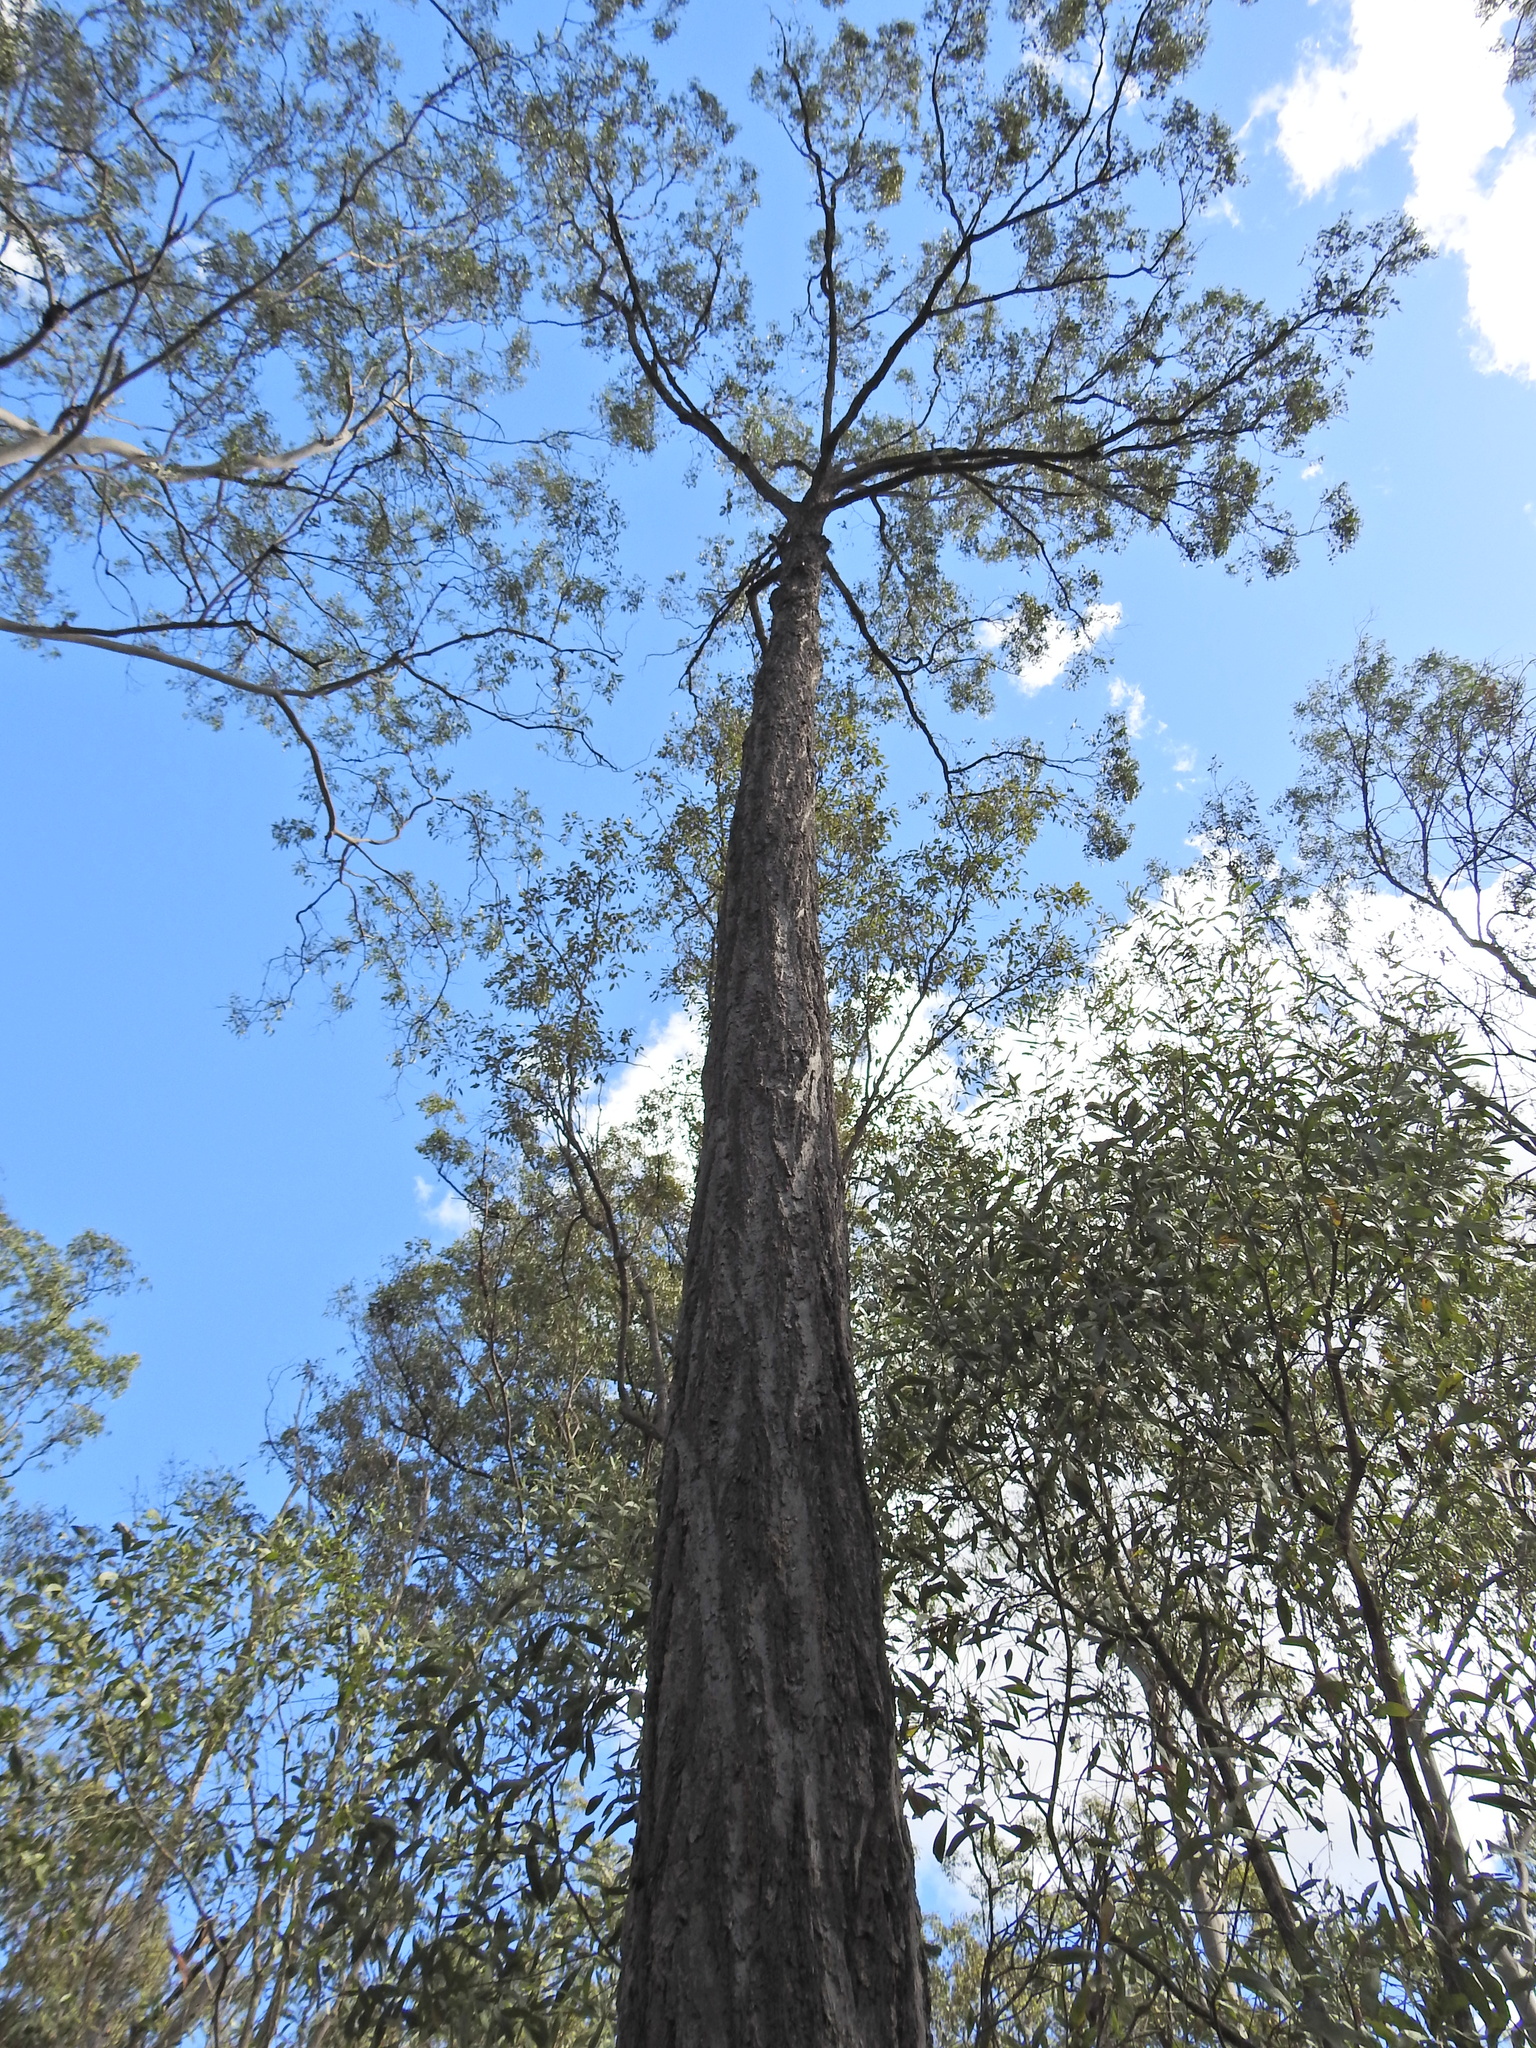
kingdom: Plantae
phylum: Tracheophyta
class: Magnoliopsida
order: Myrtales
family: Myrtaceae
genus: Eucalyptus
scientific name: Eucalyptus siderophloia
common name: Broad-leafed-ironbark
